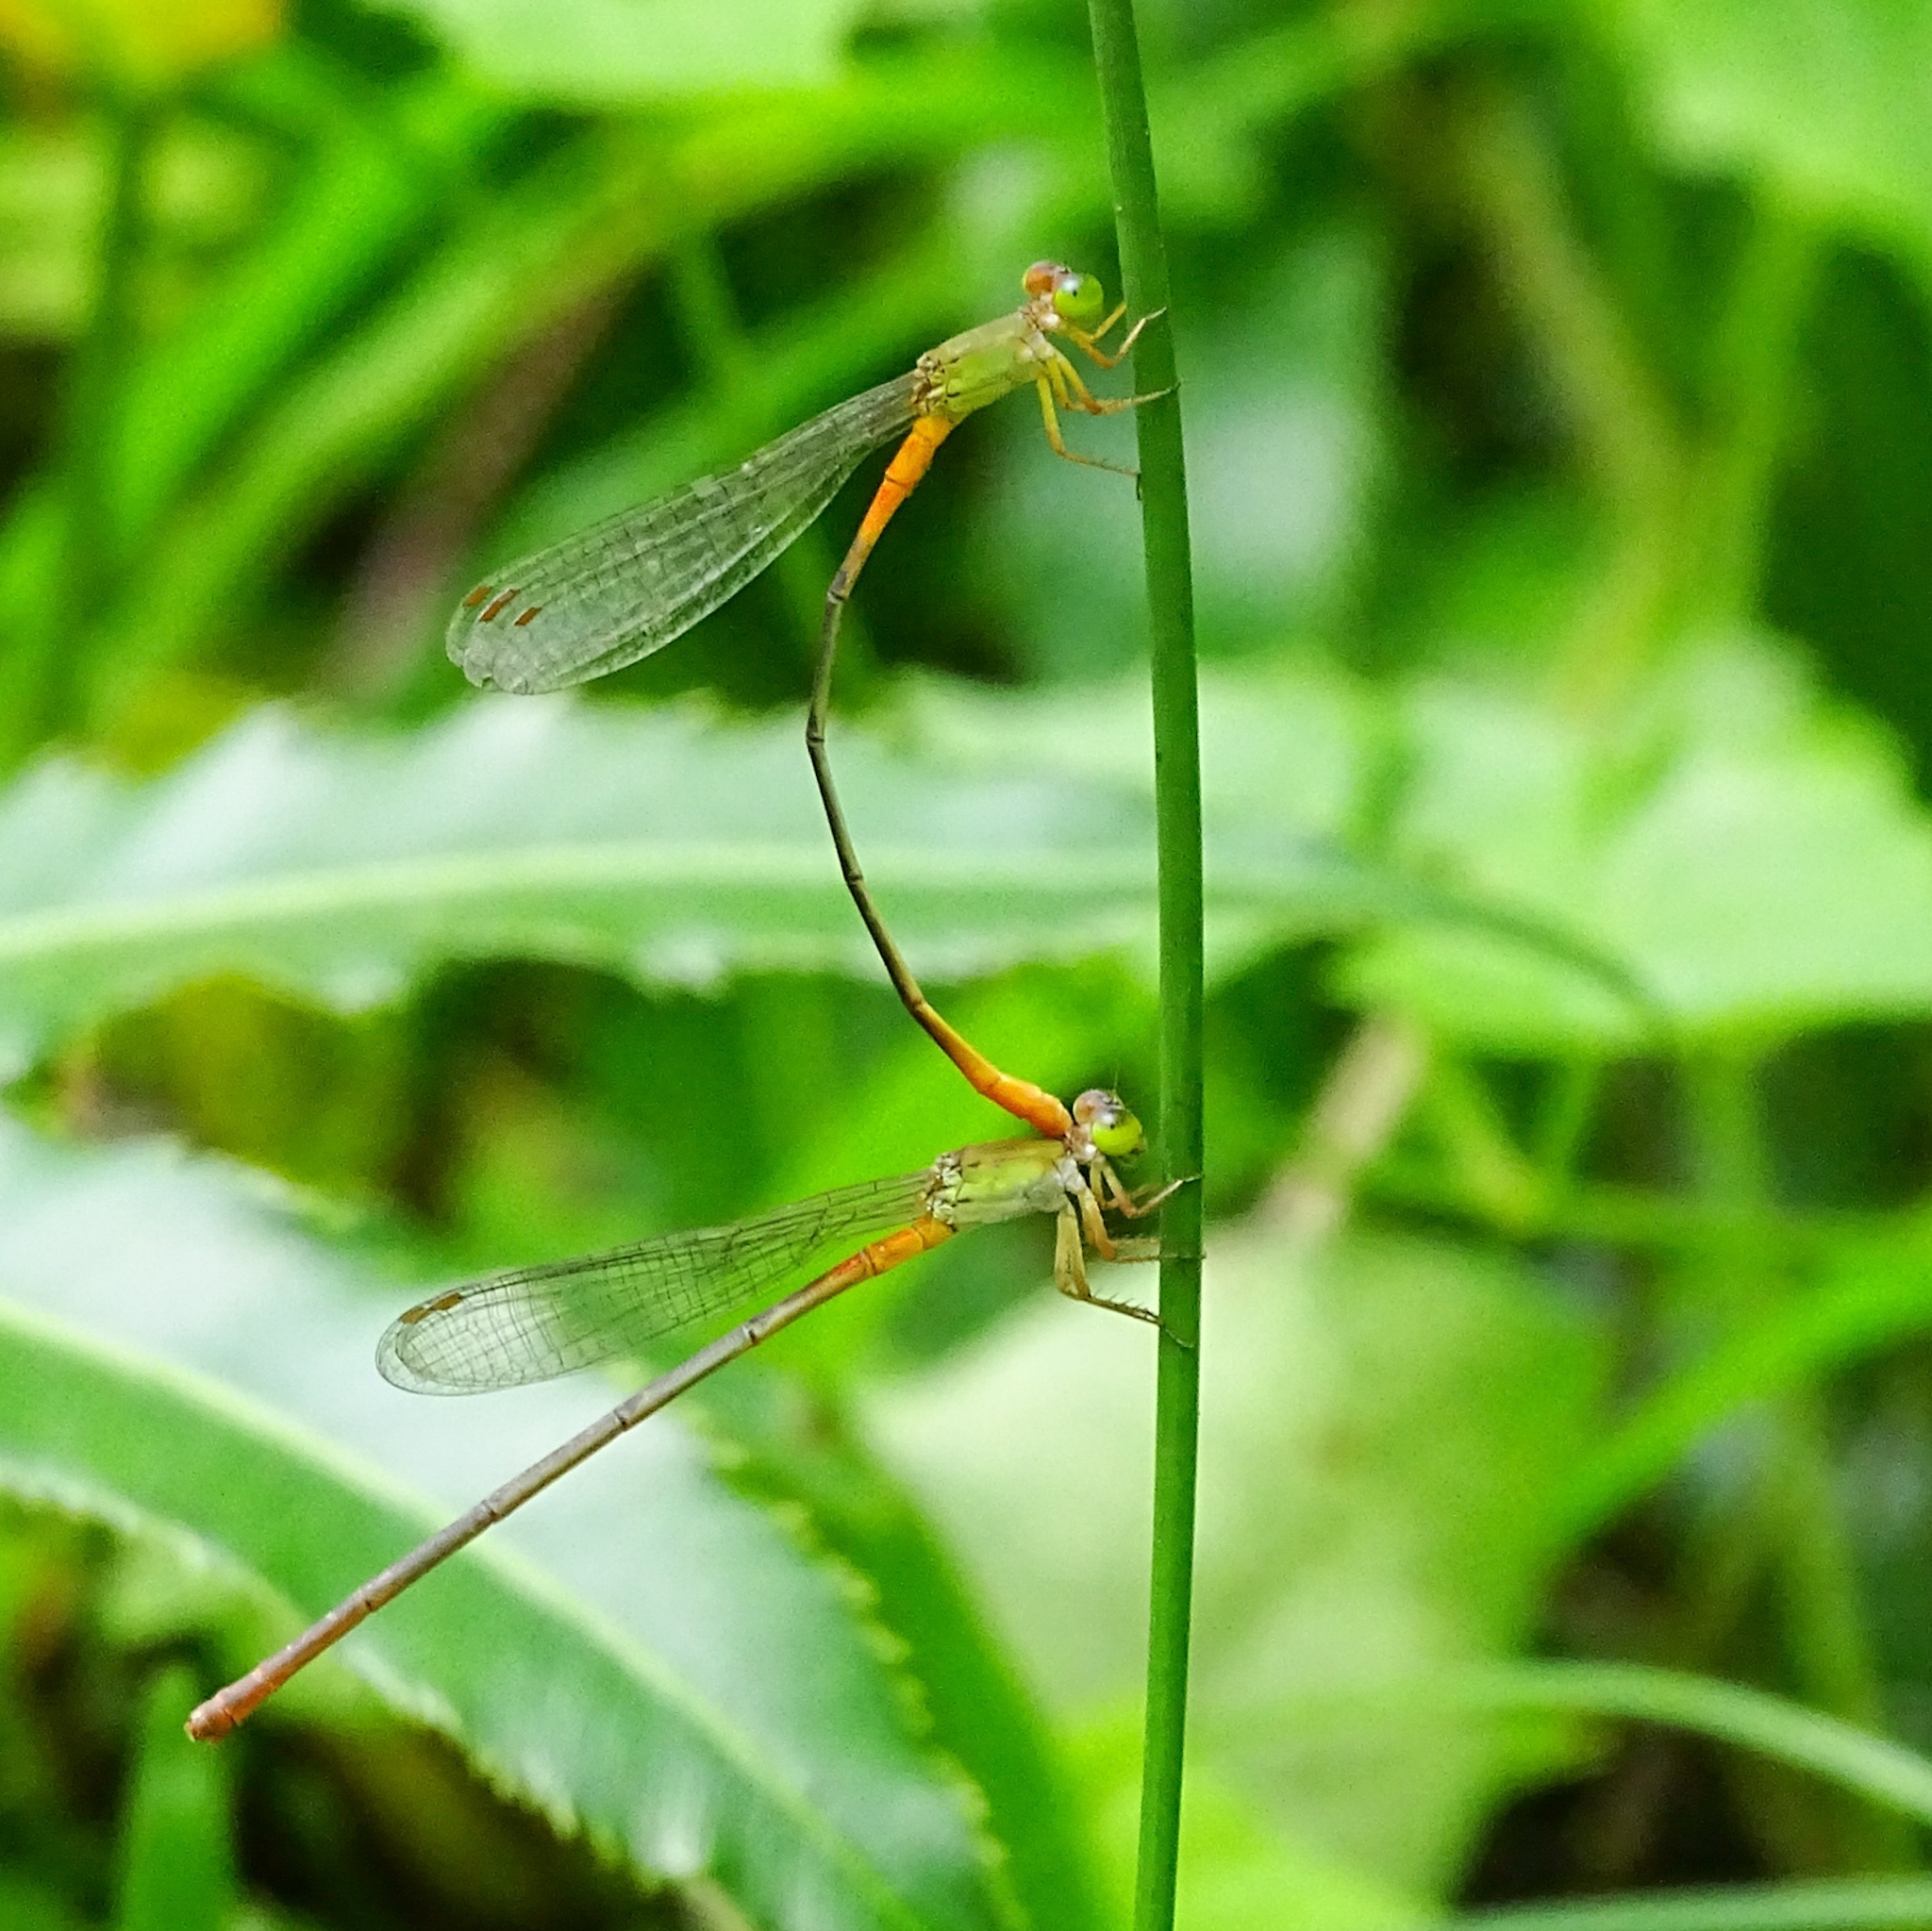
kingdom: Animalia
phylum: Arthropoda
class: Insecta
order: Odonata
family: Coenagrionidae
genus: Ceriagrion
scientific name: Ceriagrion cerinorubellum
